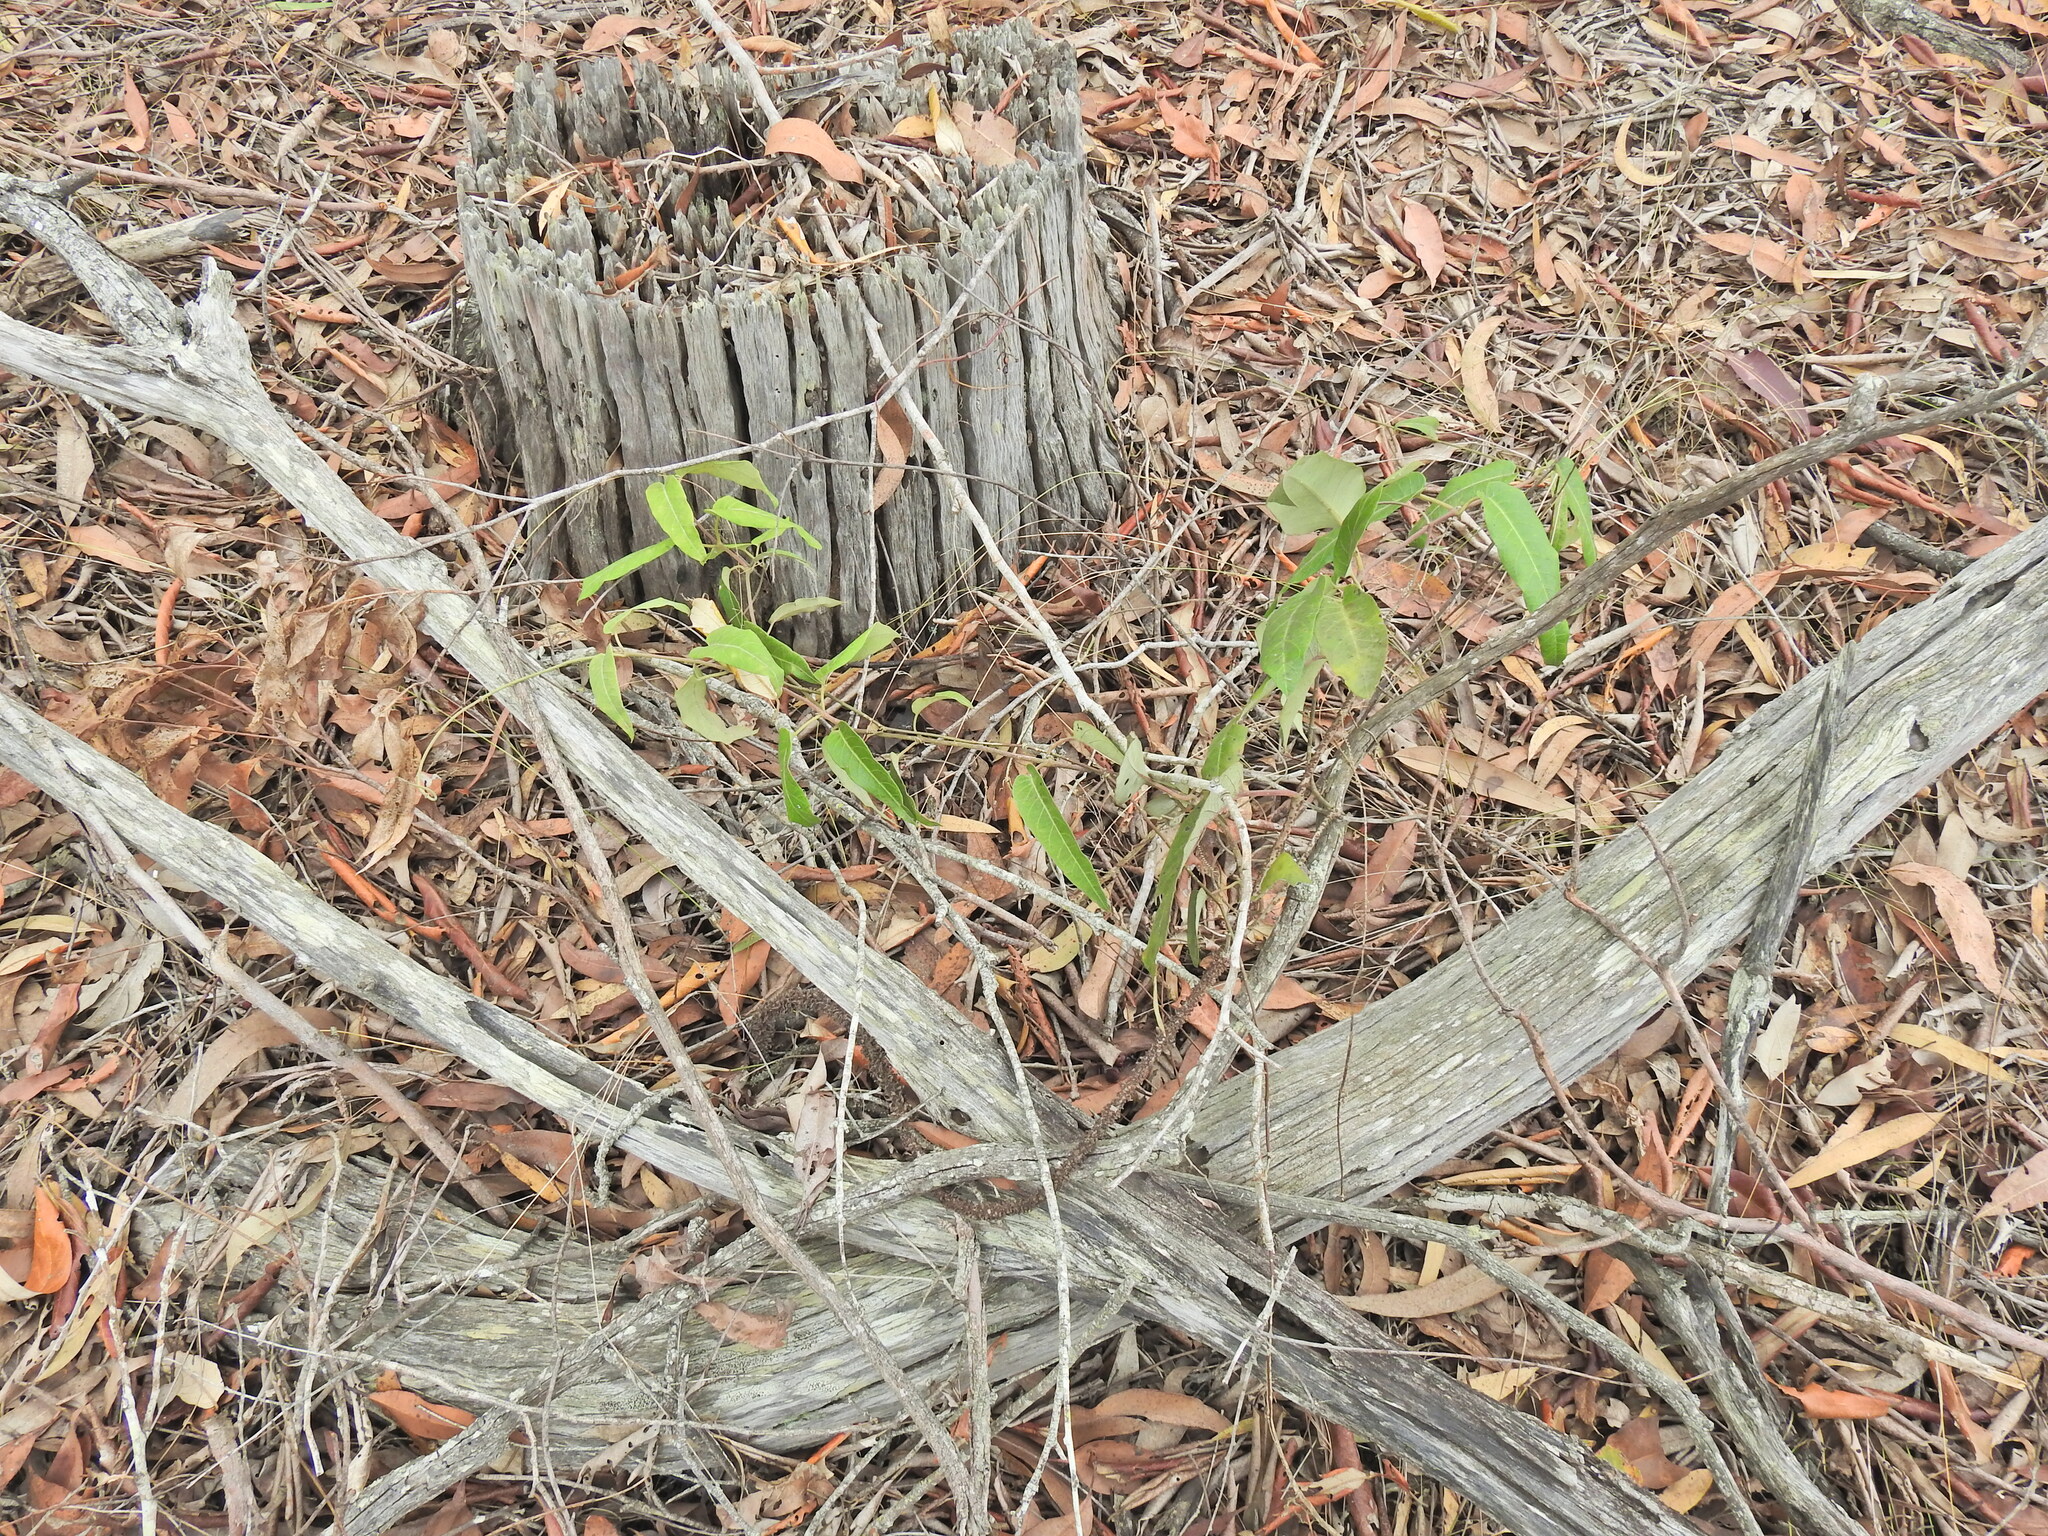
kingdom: Plantae
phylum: Tracheophyta
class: Magnoliopsida
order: Gentianales
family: Apocynaceae
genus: Parsonsia
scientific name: Parsonsia brisbanensis
